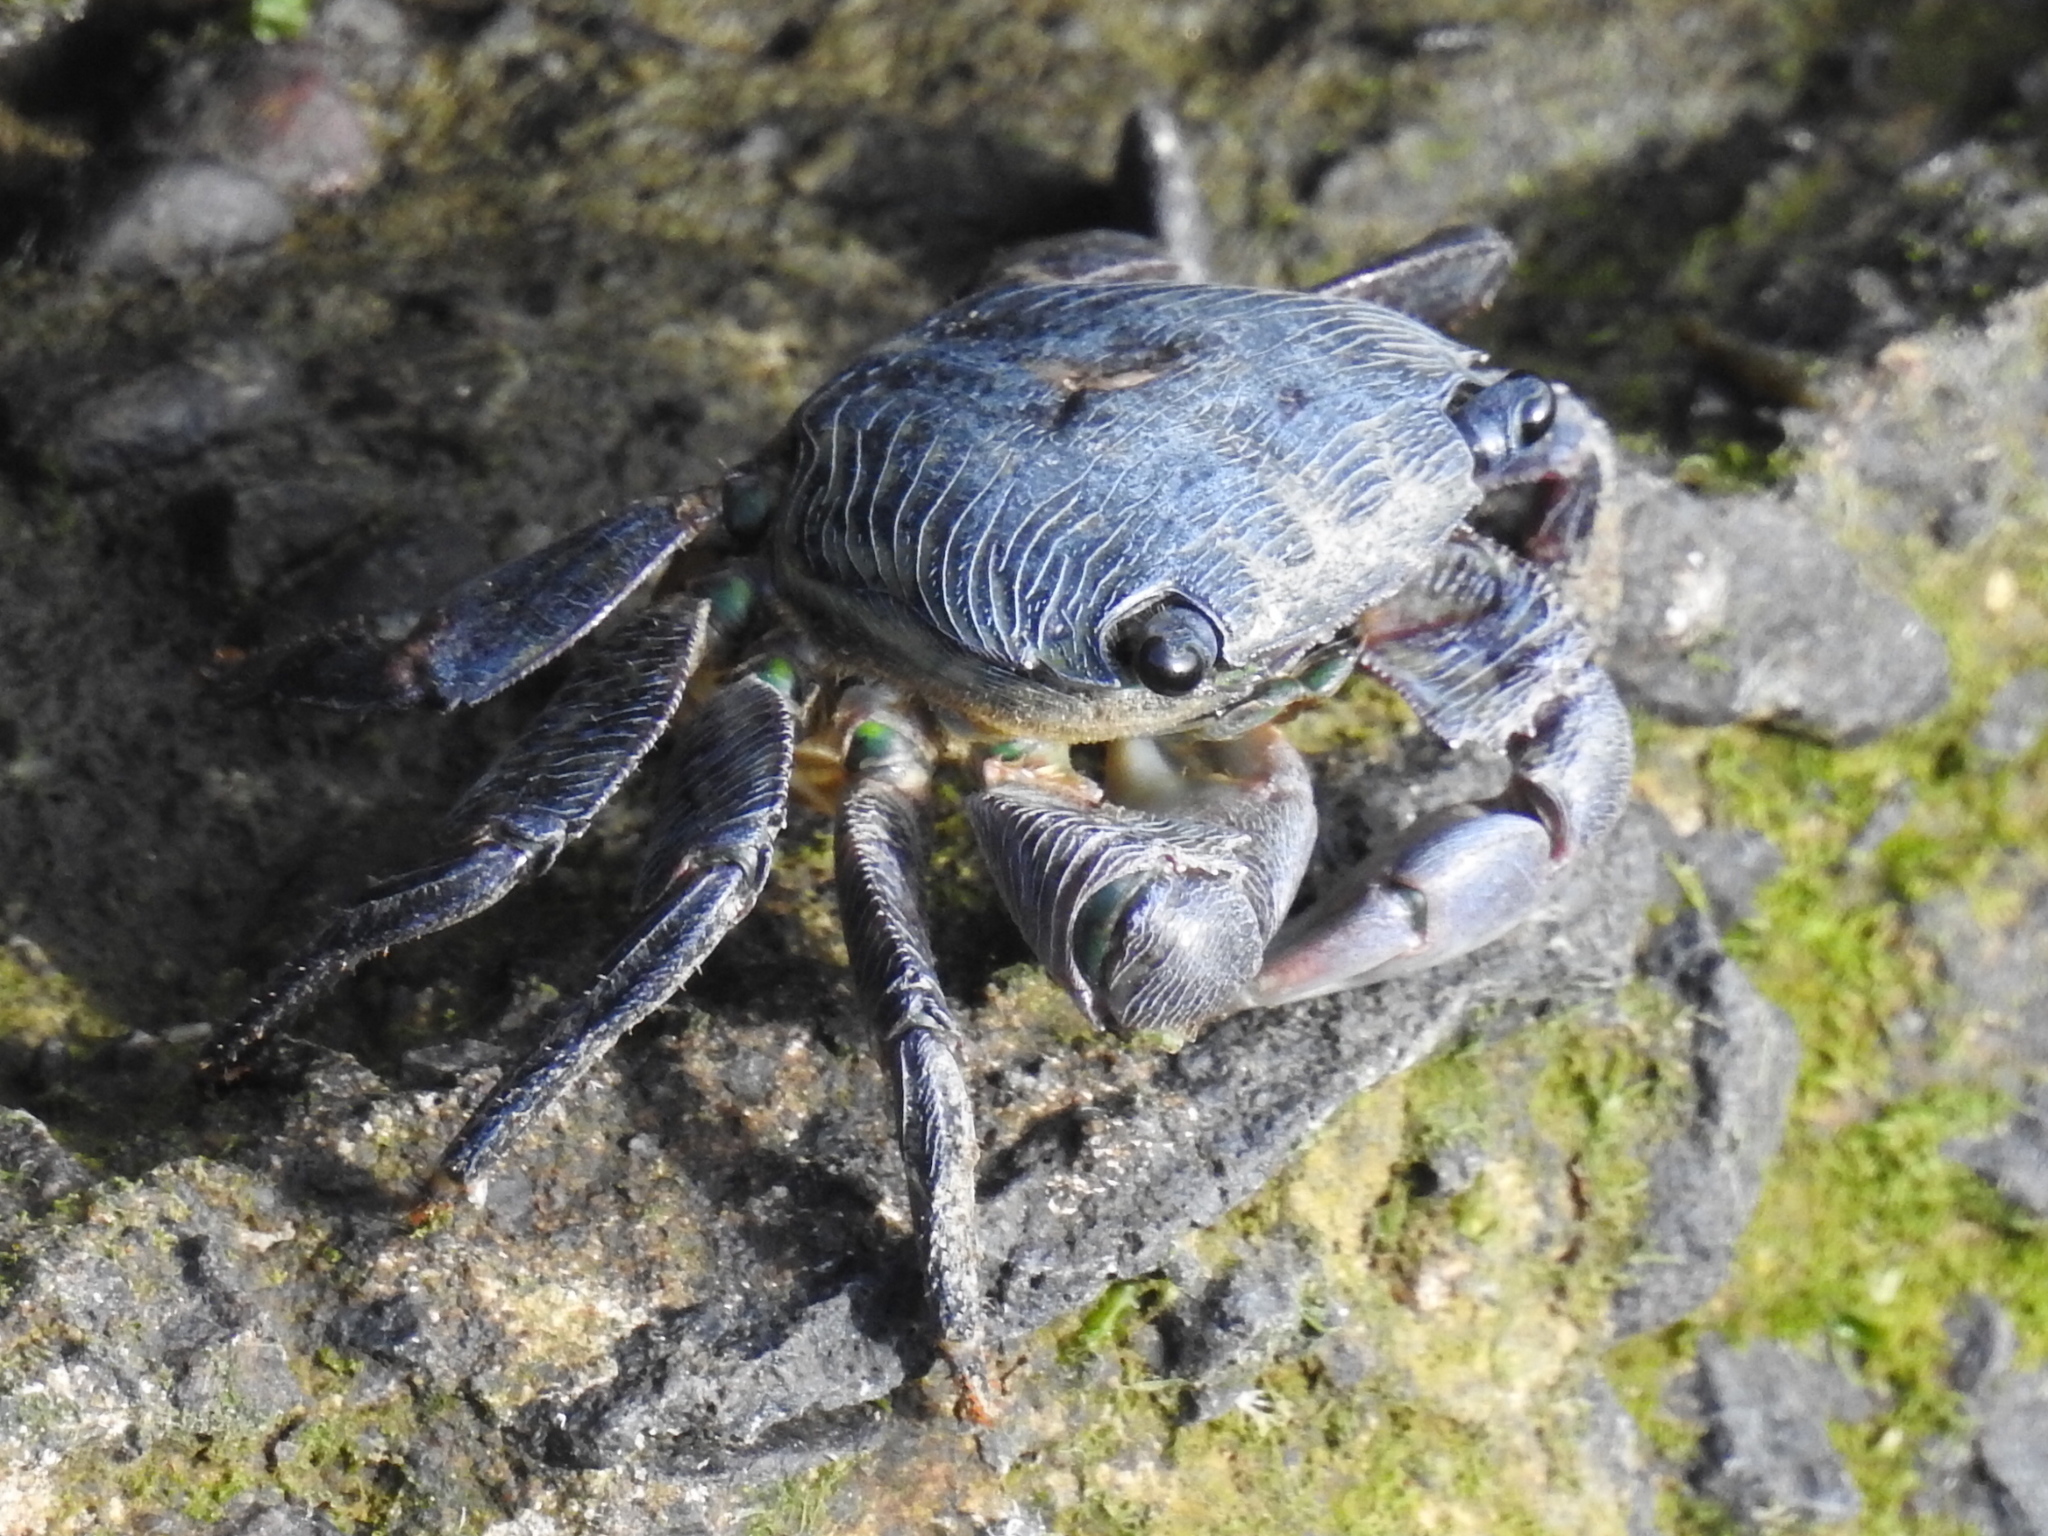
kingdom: Animalia
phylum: Arthropoda
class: Malacostraca
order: Decapoda
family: Grapsidae
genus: Pachygrapsus
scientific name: Pachygrapsus crassipes
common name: Striped shore crab
